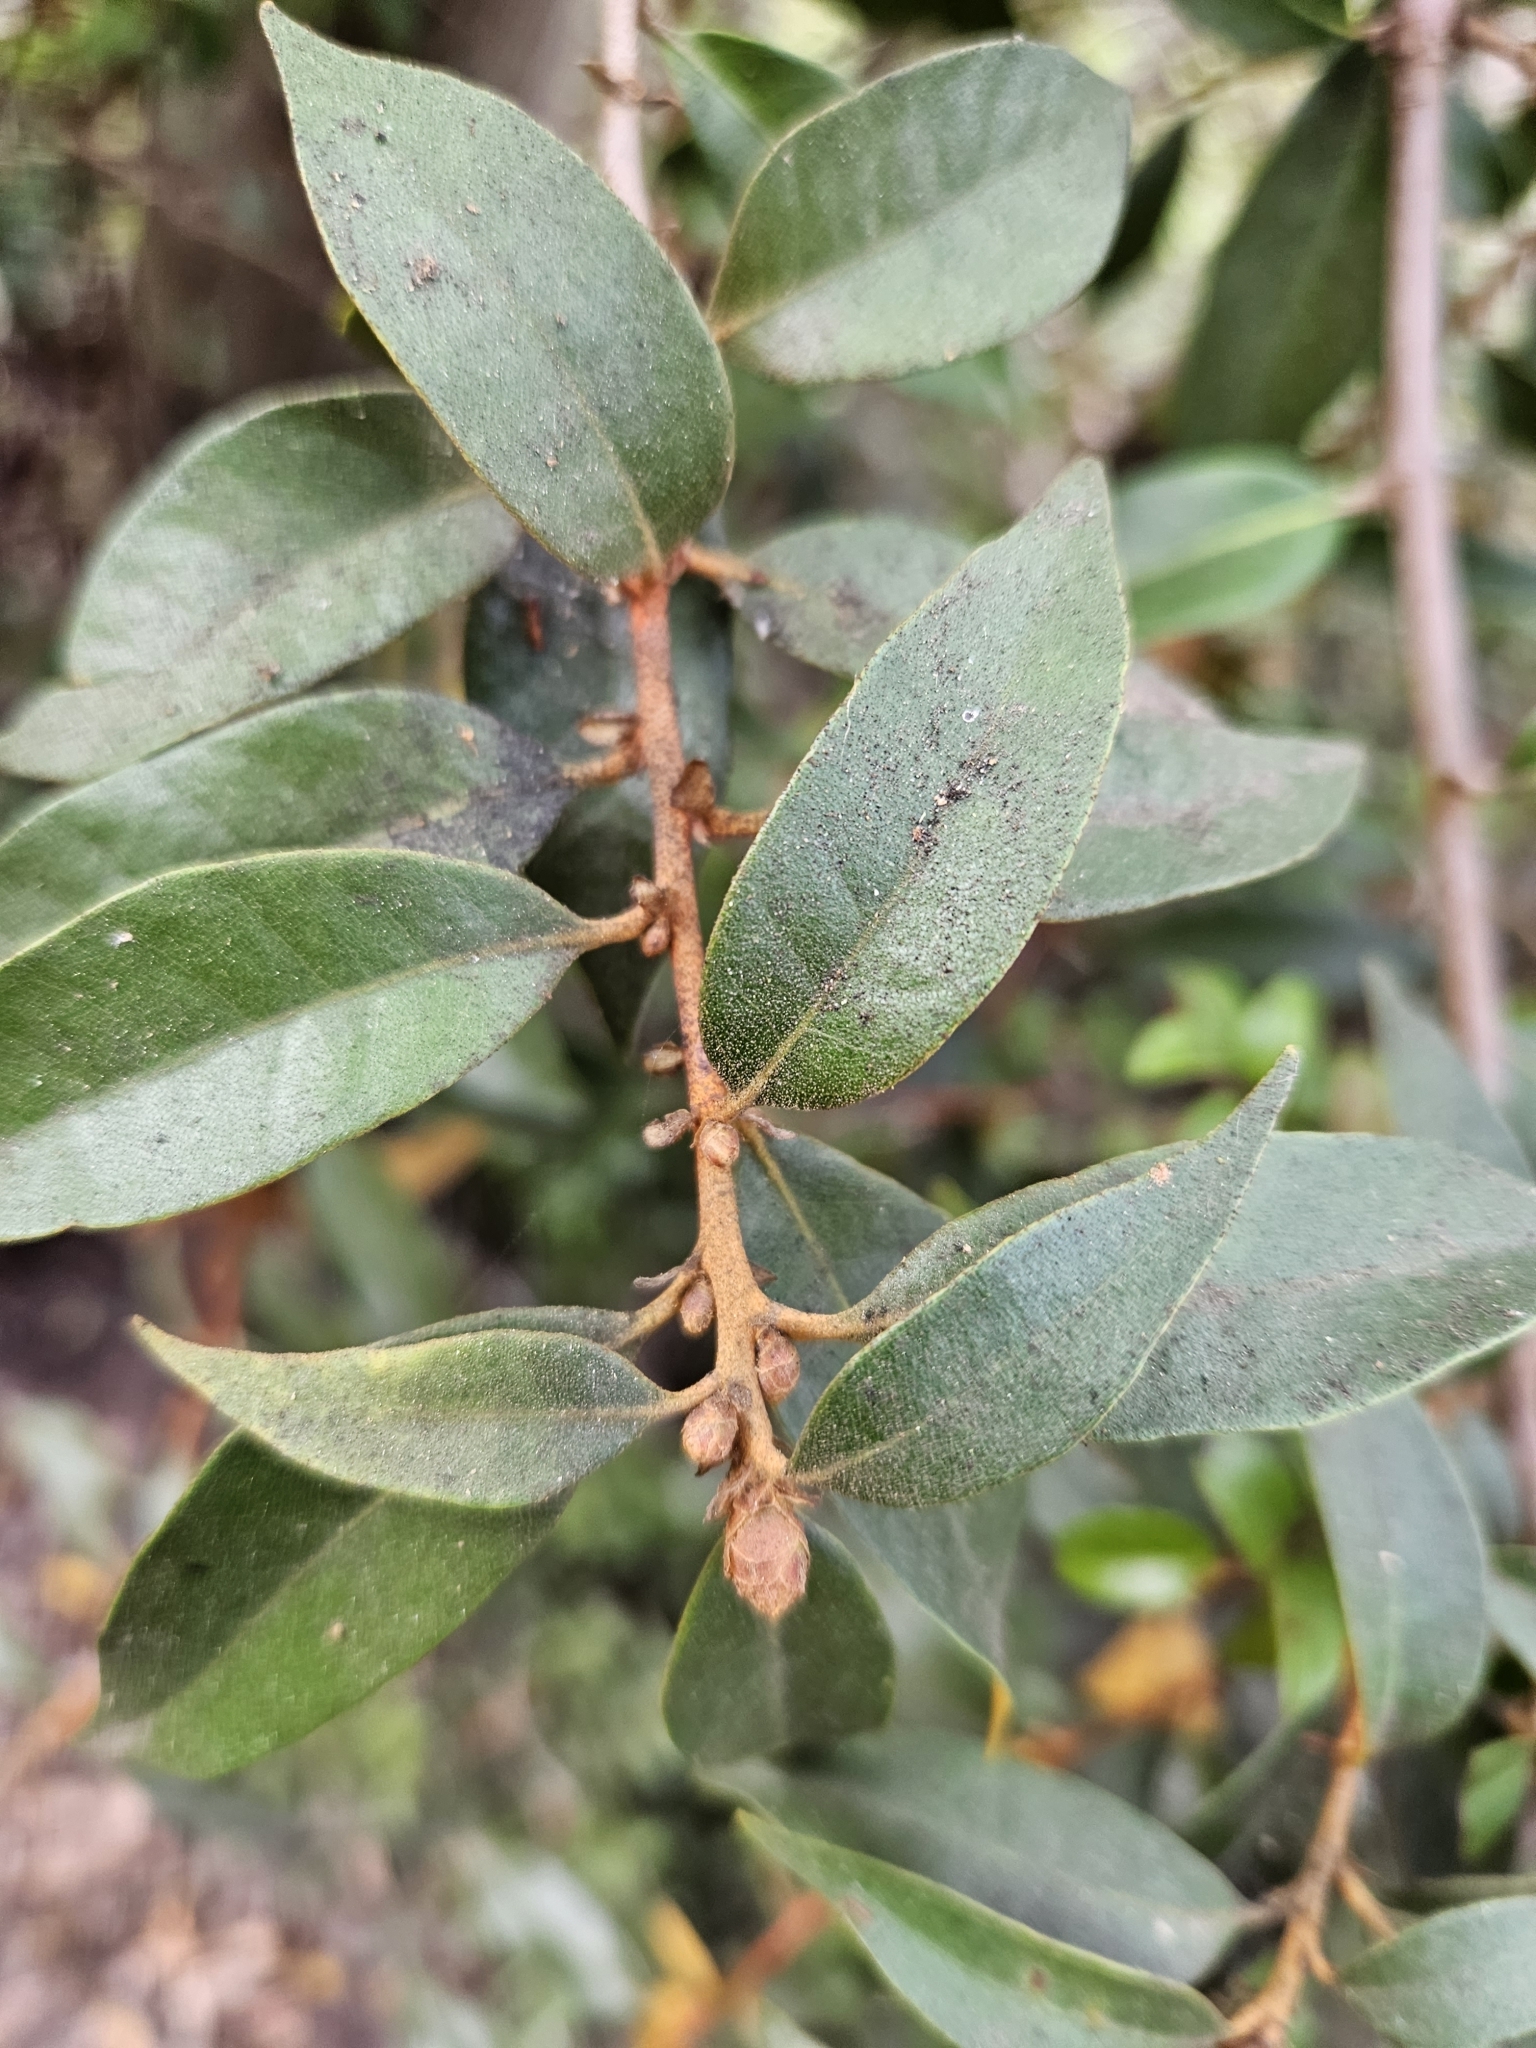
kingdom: Plantae
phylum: Tracheophyta
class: Magnoliopsida
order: Fagales
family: Fagaceae
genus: Chrysolepis
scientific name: Chrysolepis chrysophylla
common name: Giant chinquapin
